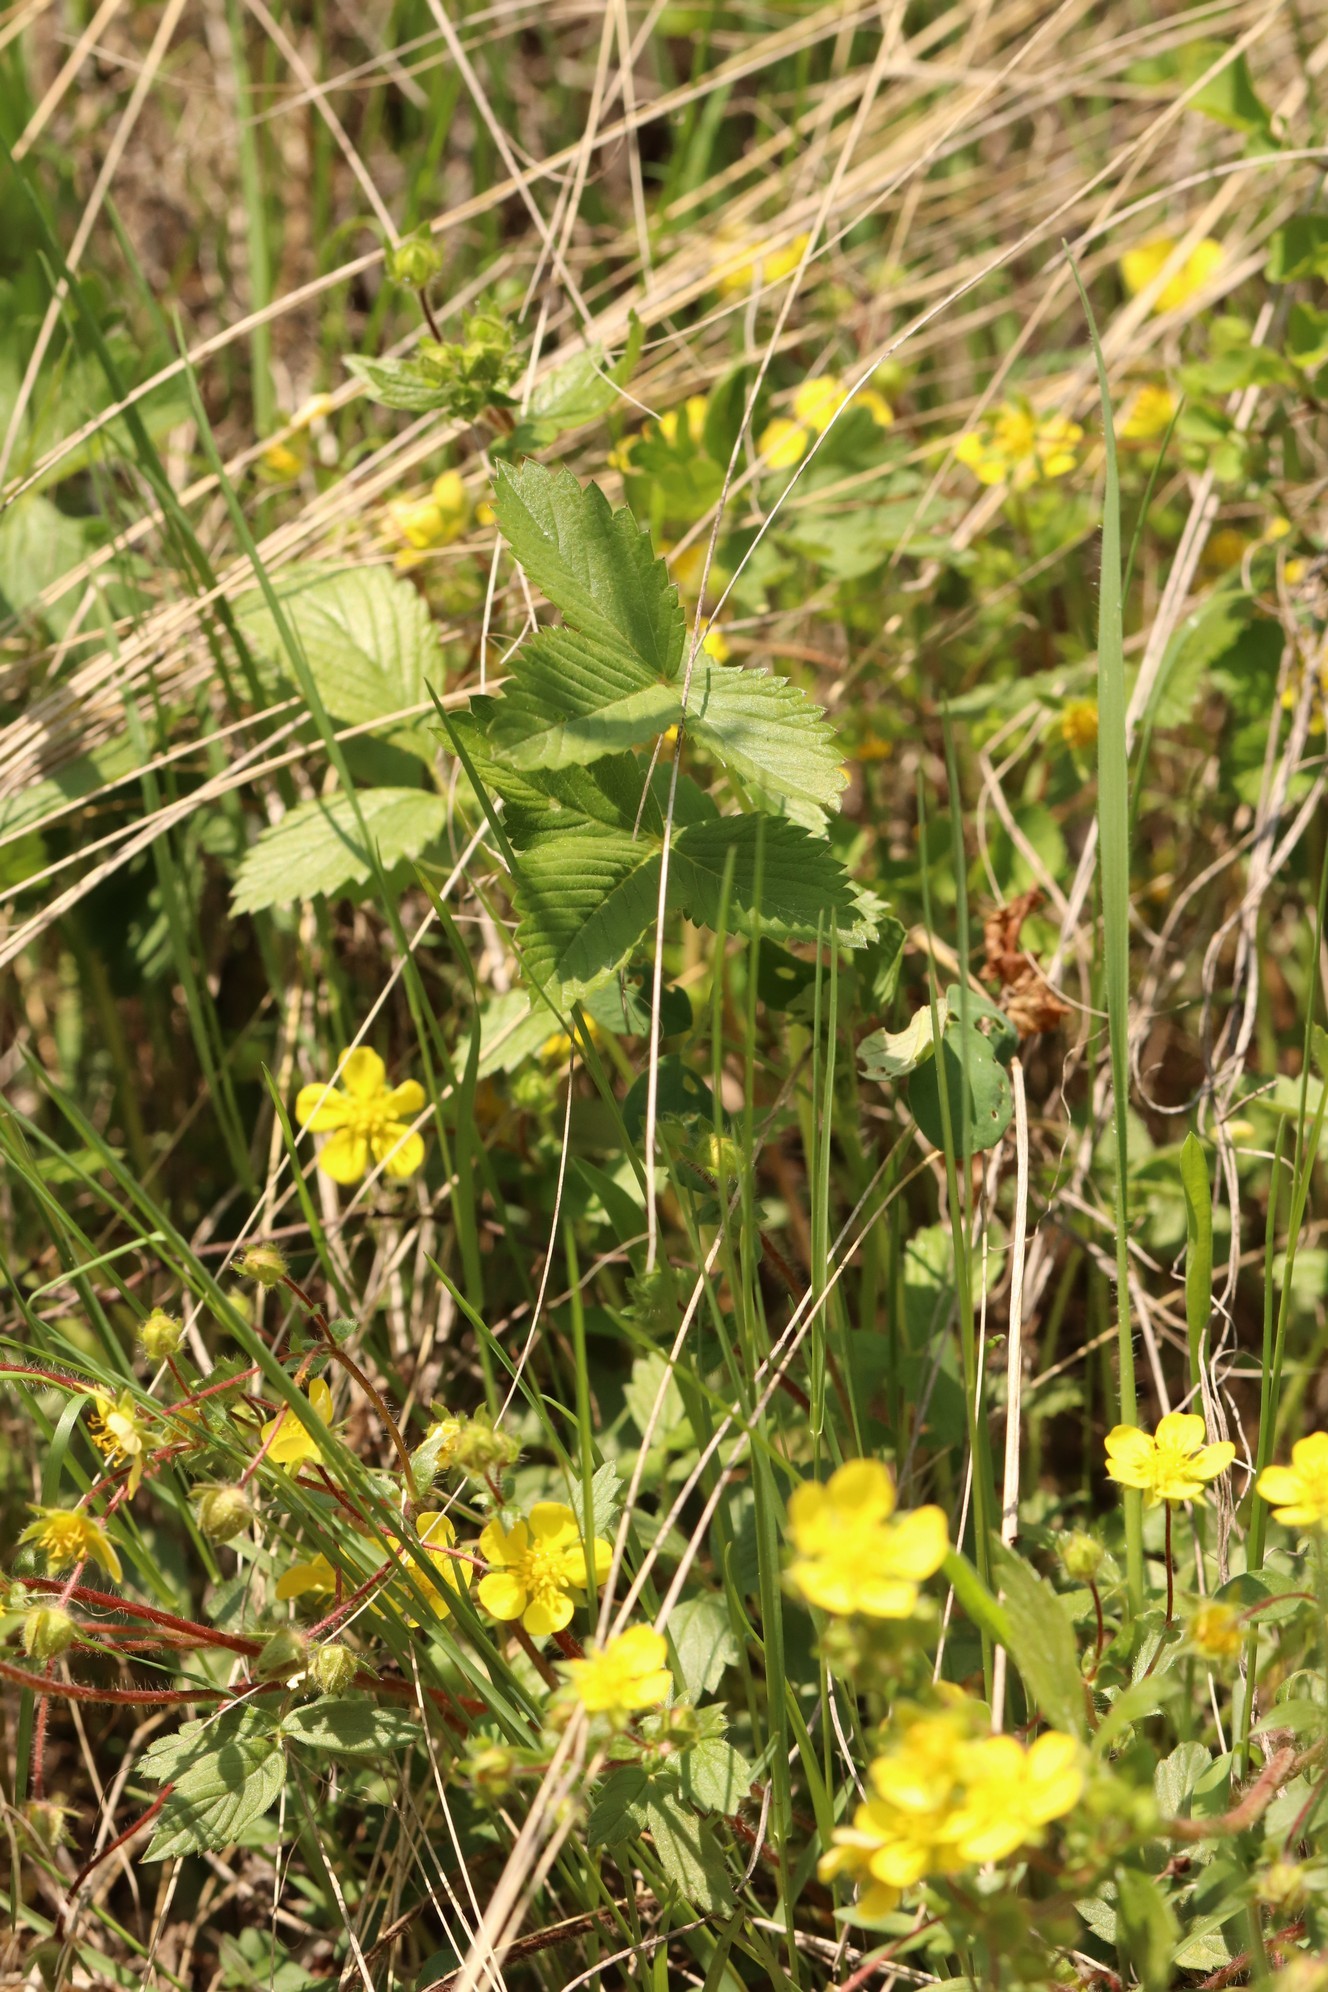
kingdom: Plantae
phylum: Tracheophyta
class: Magnoliopsida
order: Rosales
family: Rosaceae
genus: Potentilla
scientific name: Potentilla fragarioides
